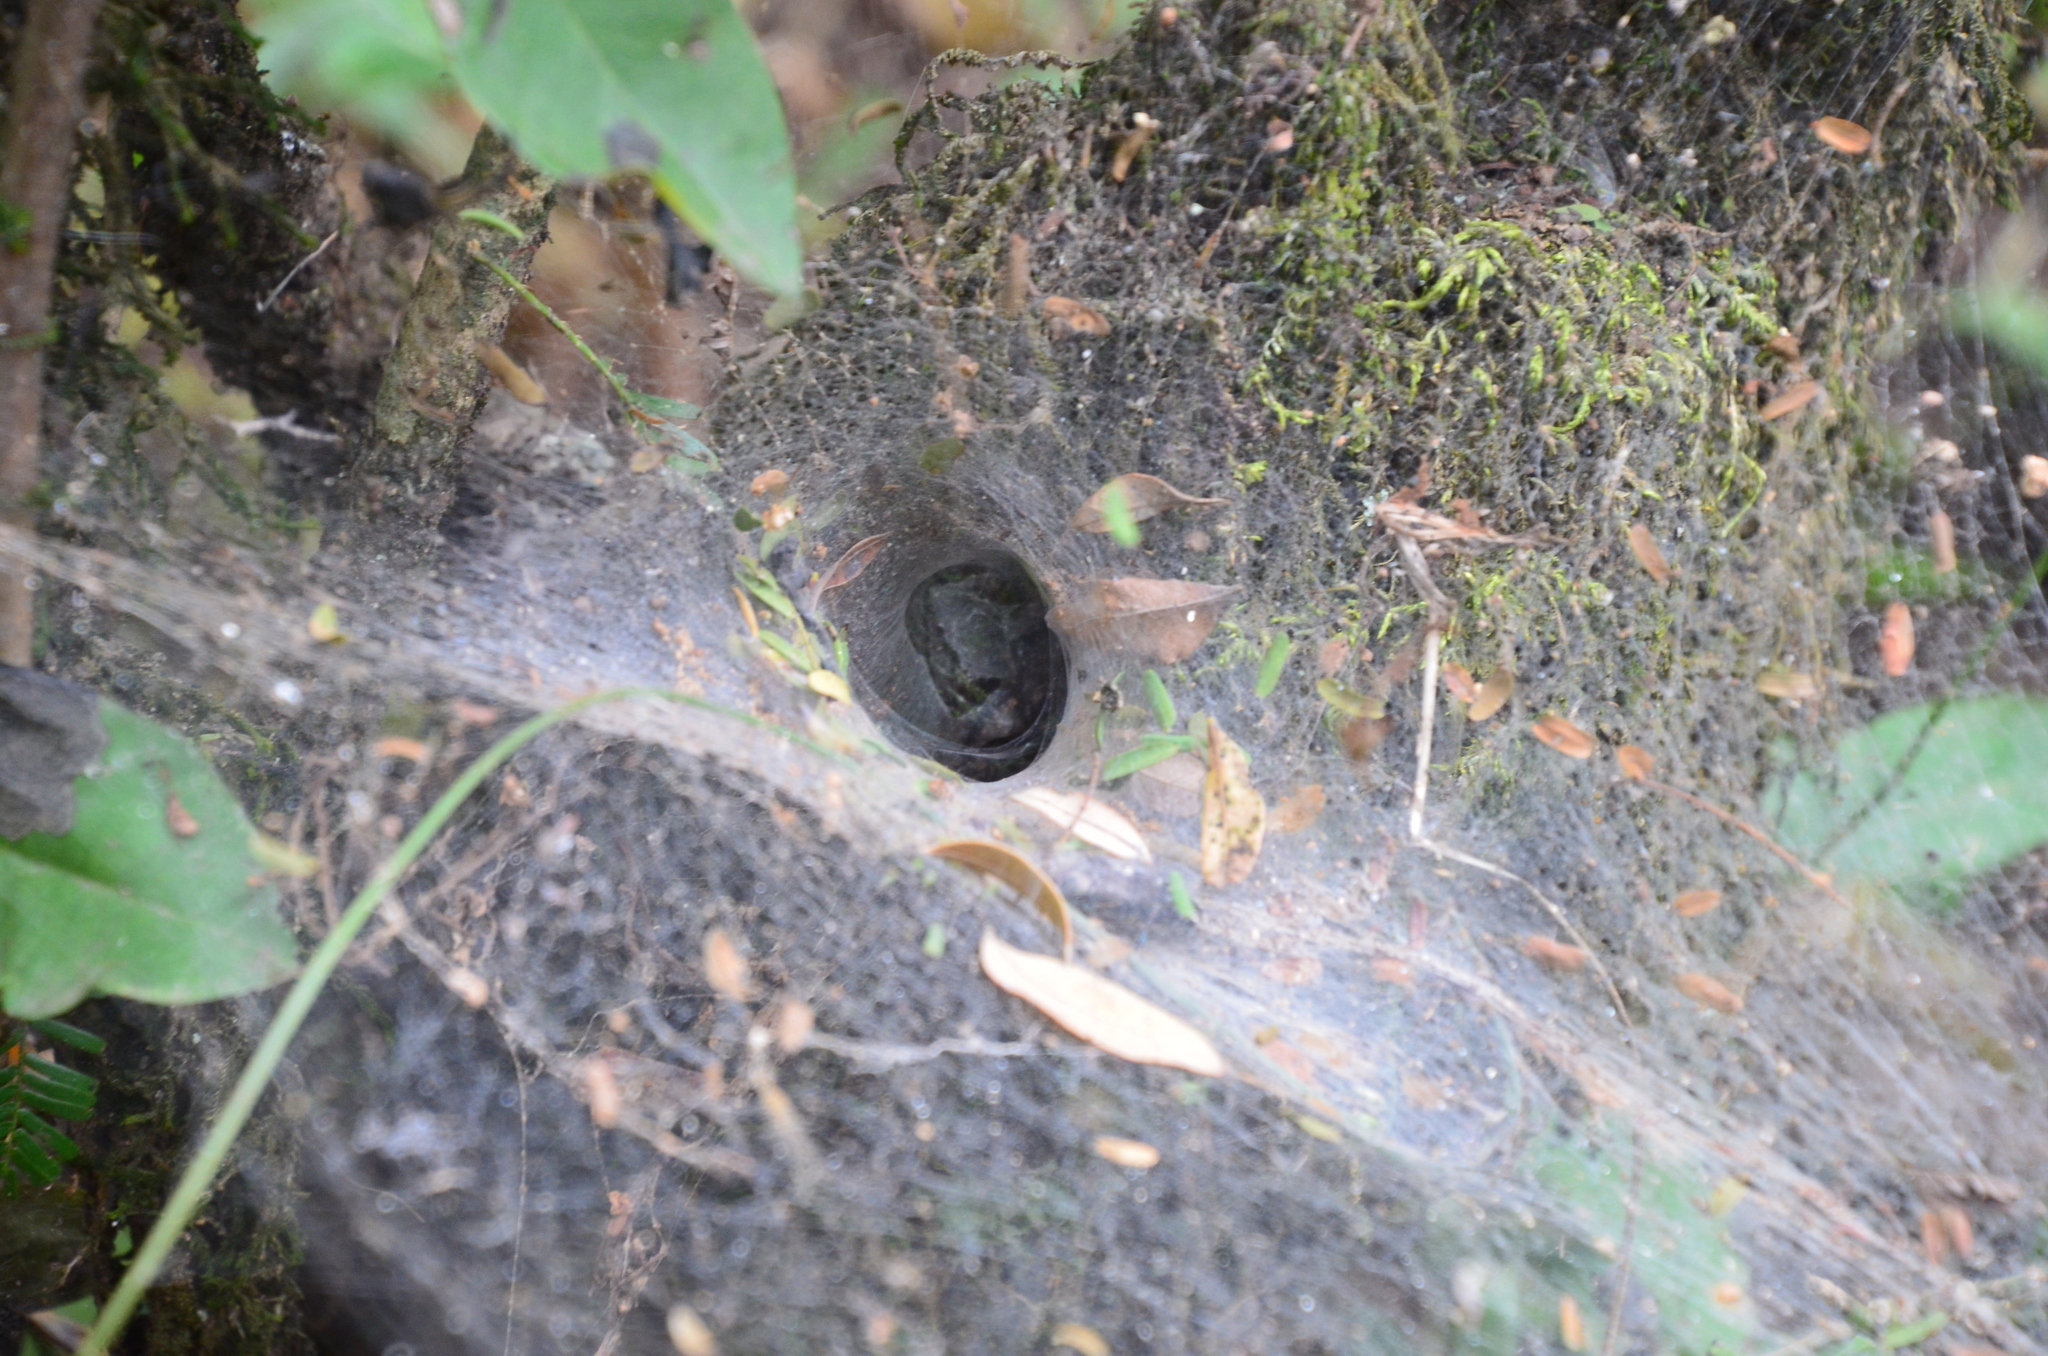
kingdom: Animalia
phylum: Arthropoda
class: Arachnida
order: Araneae
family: Lycosidae
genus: Aglaoctenus
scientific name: Aglaoctenus lagotis
